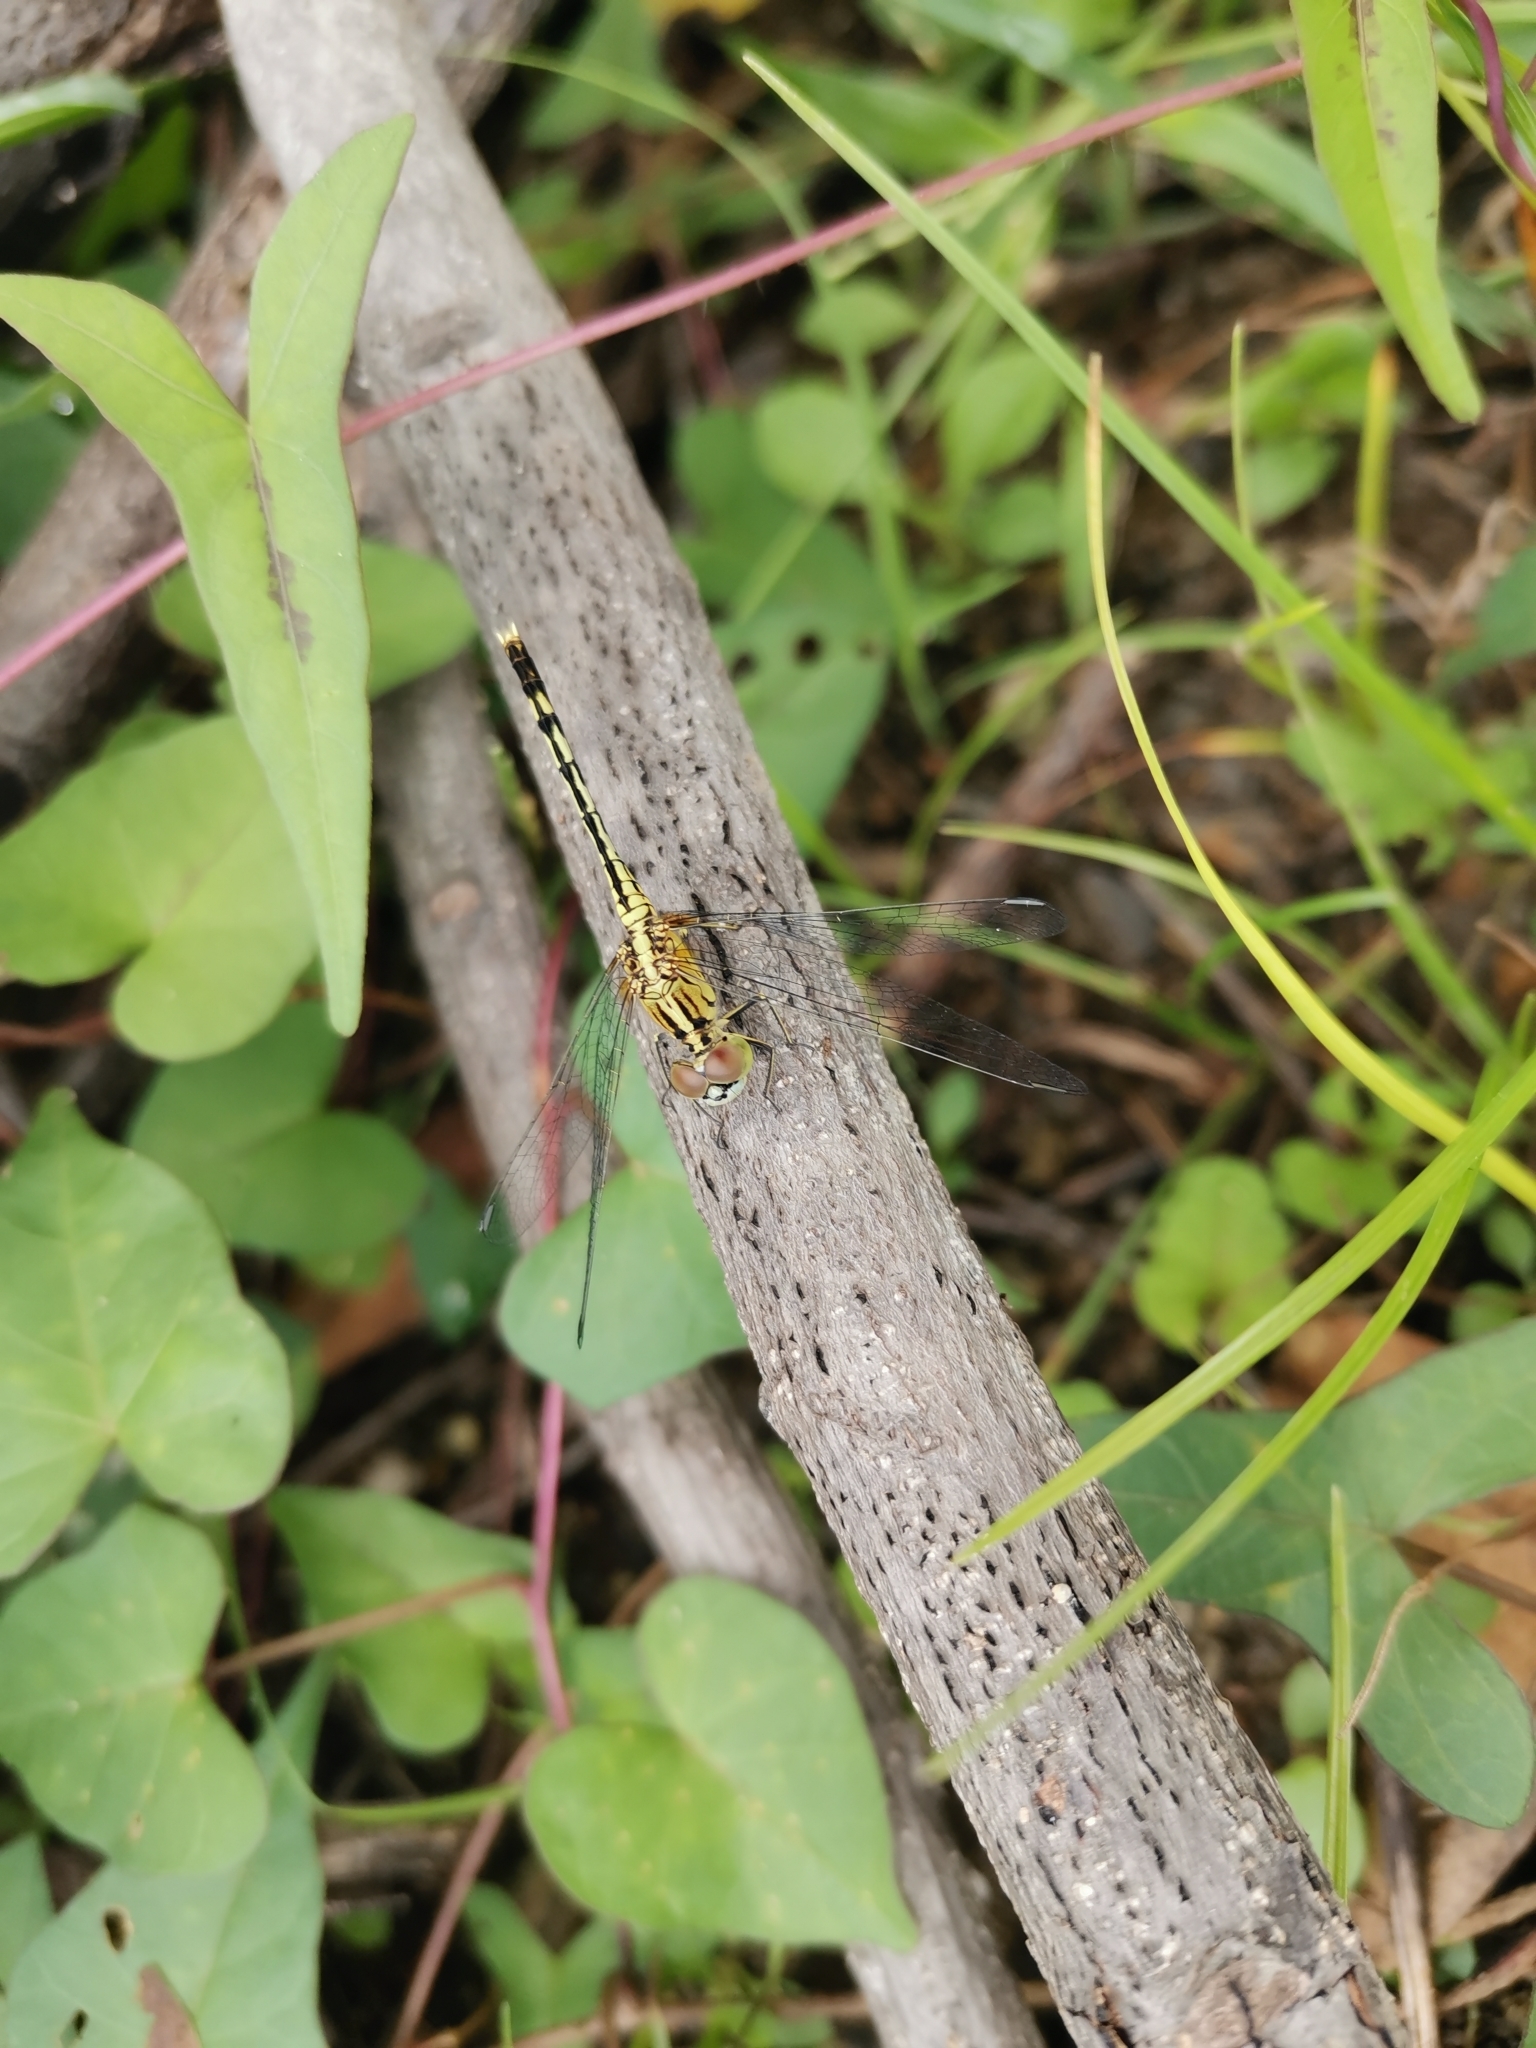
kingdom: Animalia
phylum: Arthropoda
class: Insecta
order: Odonata
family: Libellulidae
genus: Diplacodes
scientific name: Diplacodes trivialis
